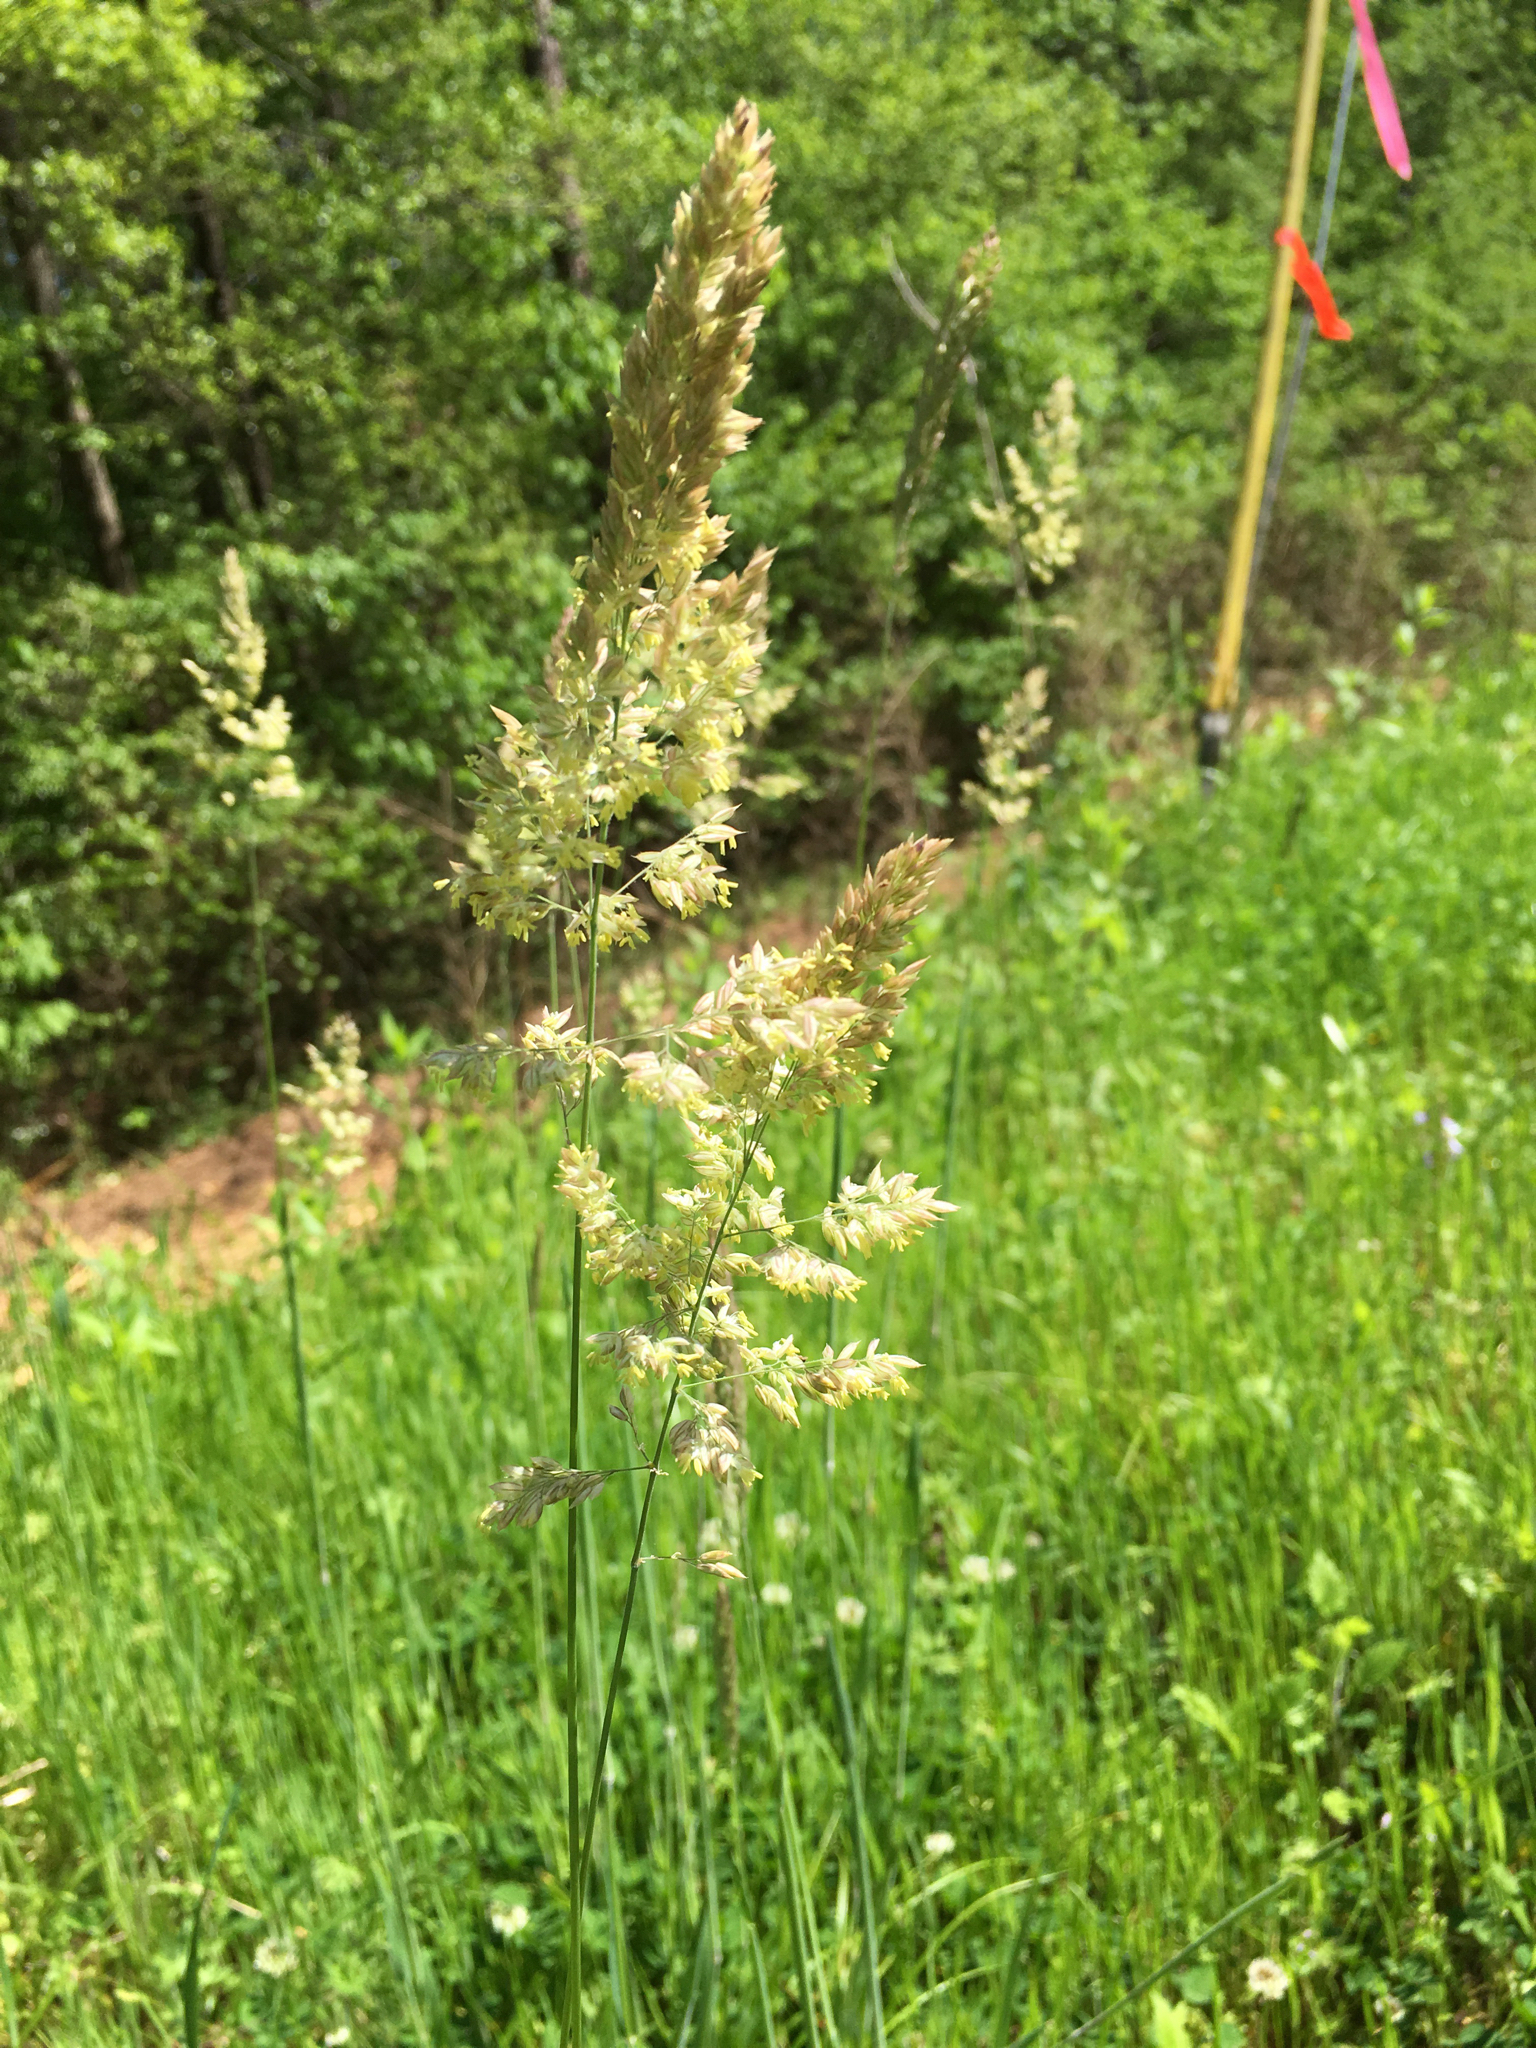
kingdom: Plantae
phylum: Tracheophyta
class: Liliopsida
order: Poales
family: Poaceae
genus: Holcus
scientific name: Holcus lanatus
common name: Yorkshire-fog
